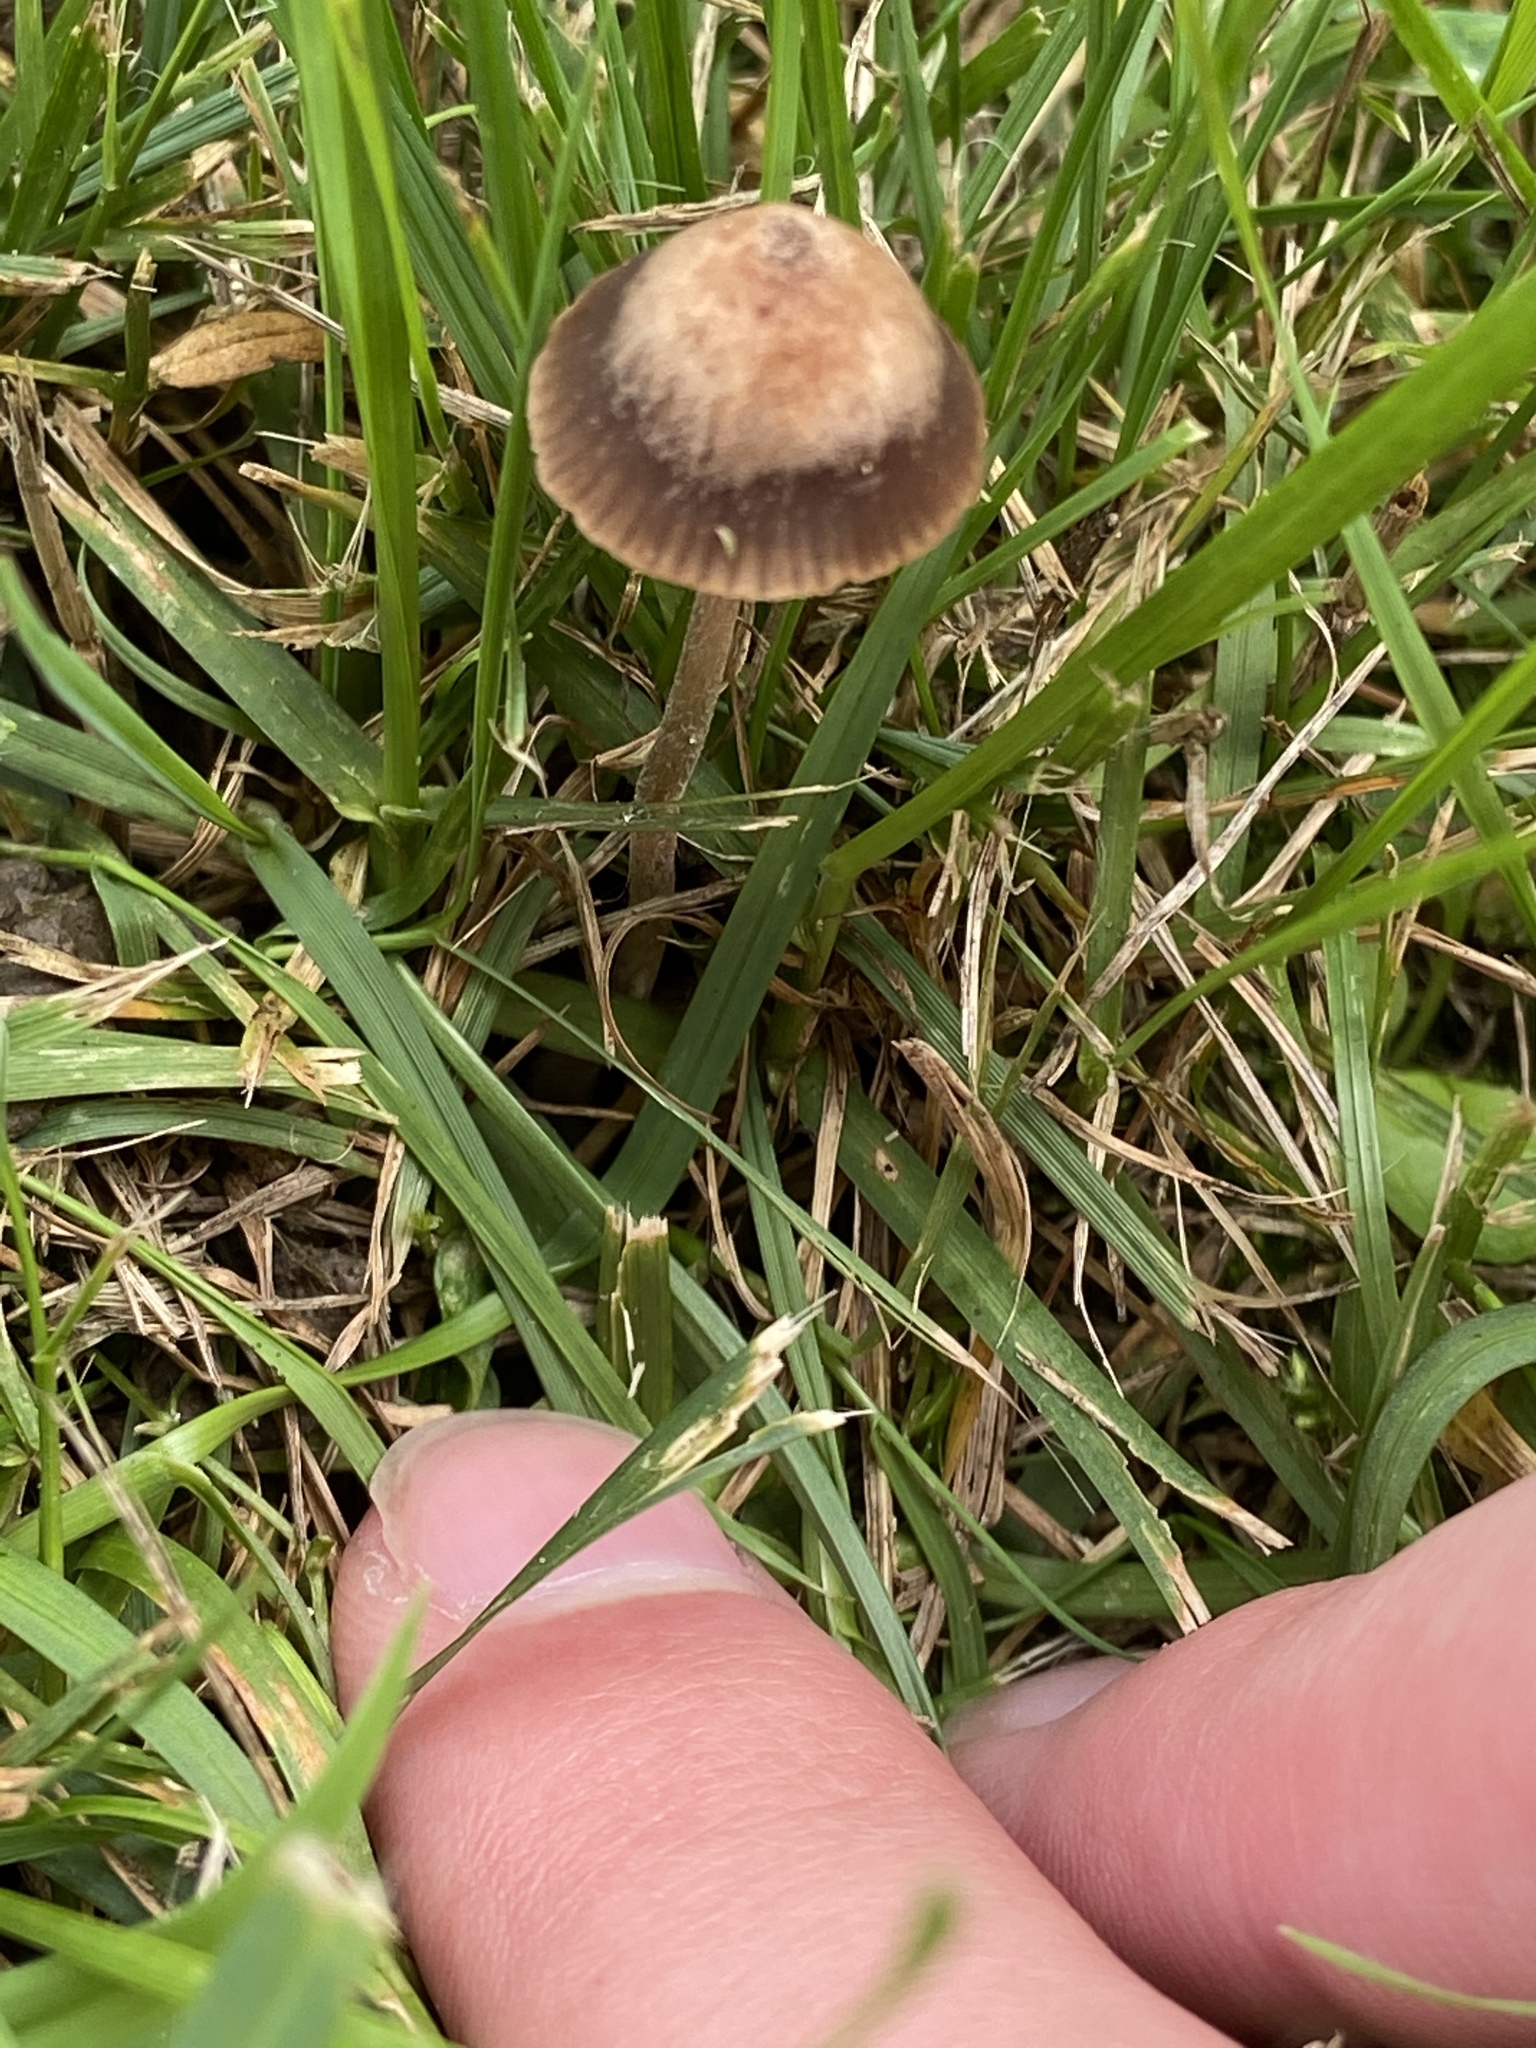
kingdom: Fungi
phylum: Basidiomycota
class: Agaricomycetes
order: Agaricales
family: Bolbitiaceae
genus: Panaeolina
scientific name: Panaeolina foenisecii
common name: Brown hay cap
